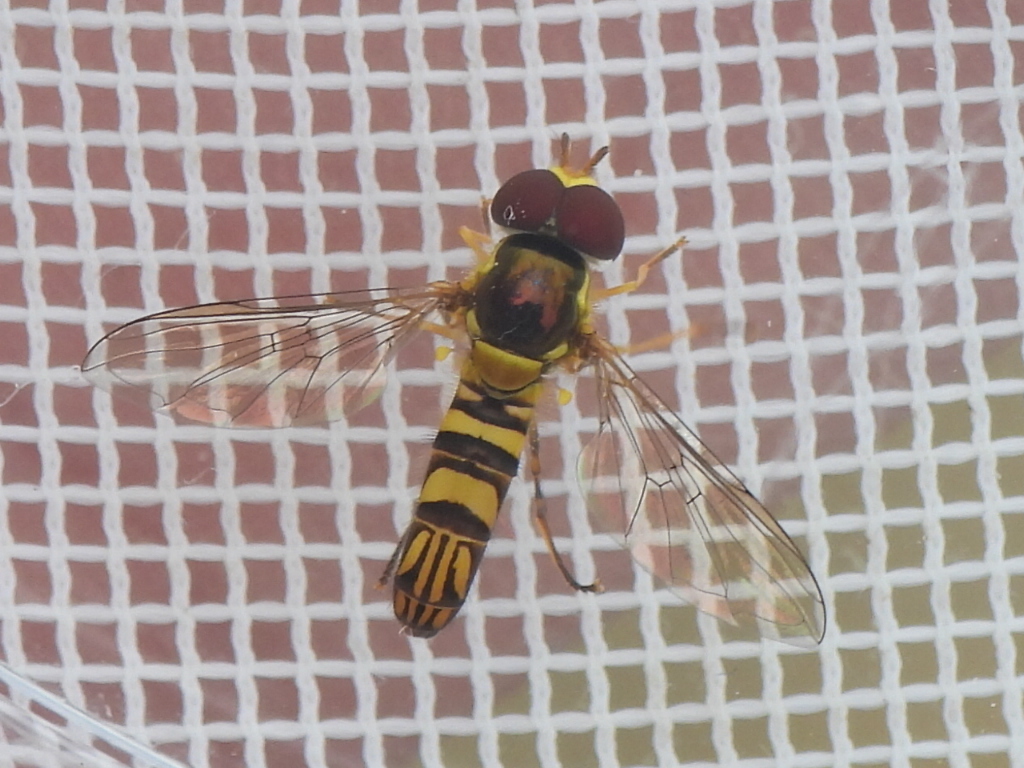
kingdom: Animalia
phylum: Arthropoda
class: Insecta
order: Diptera
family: Syrphidae
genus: Allograpta
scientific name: Allograpta obliqua
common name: Common oblique syrphid
